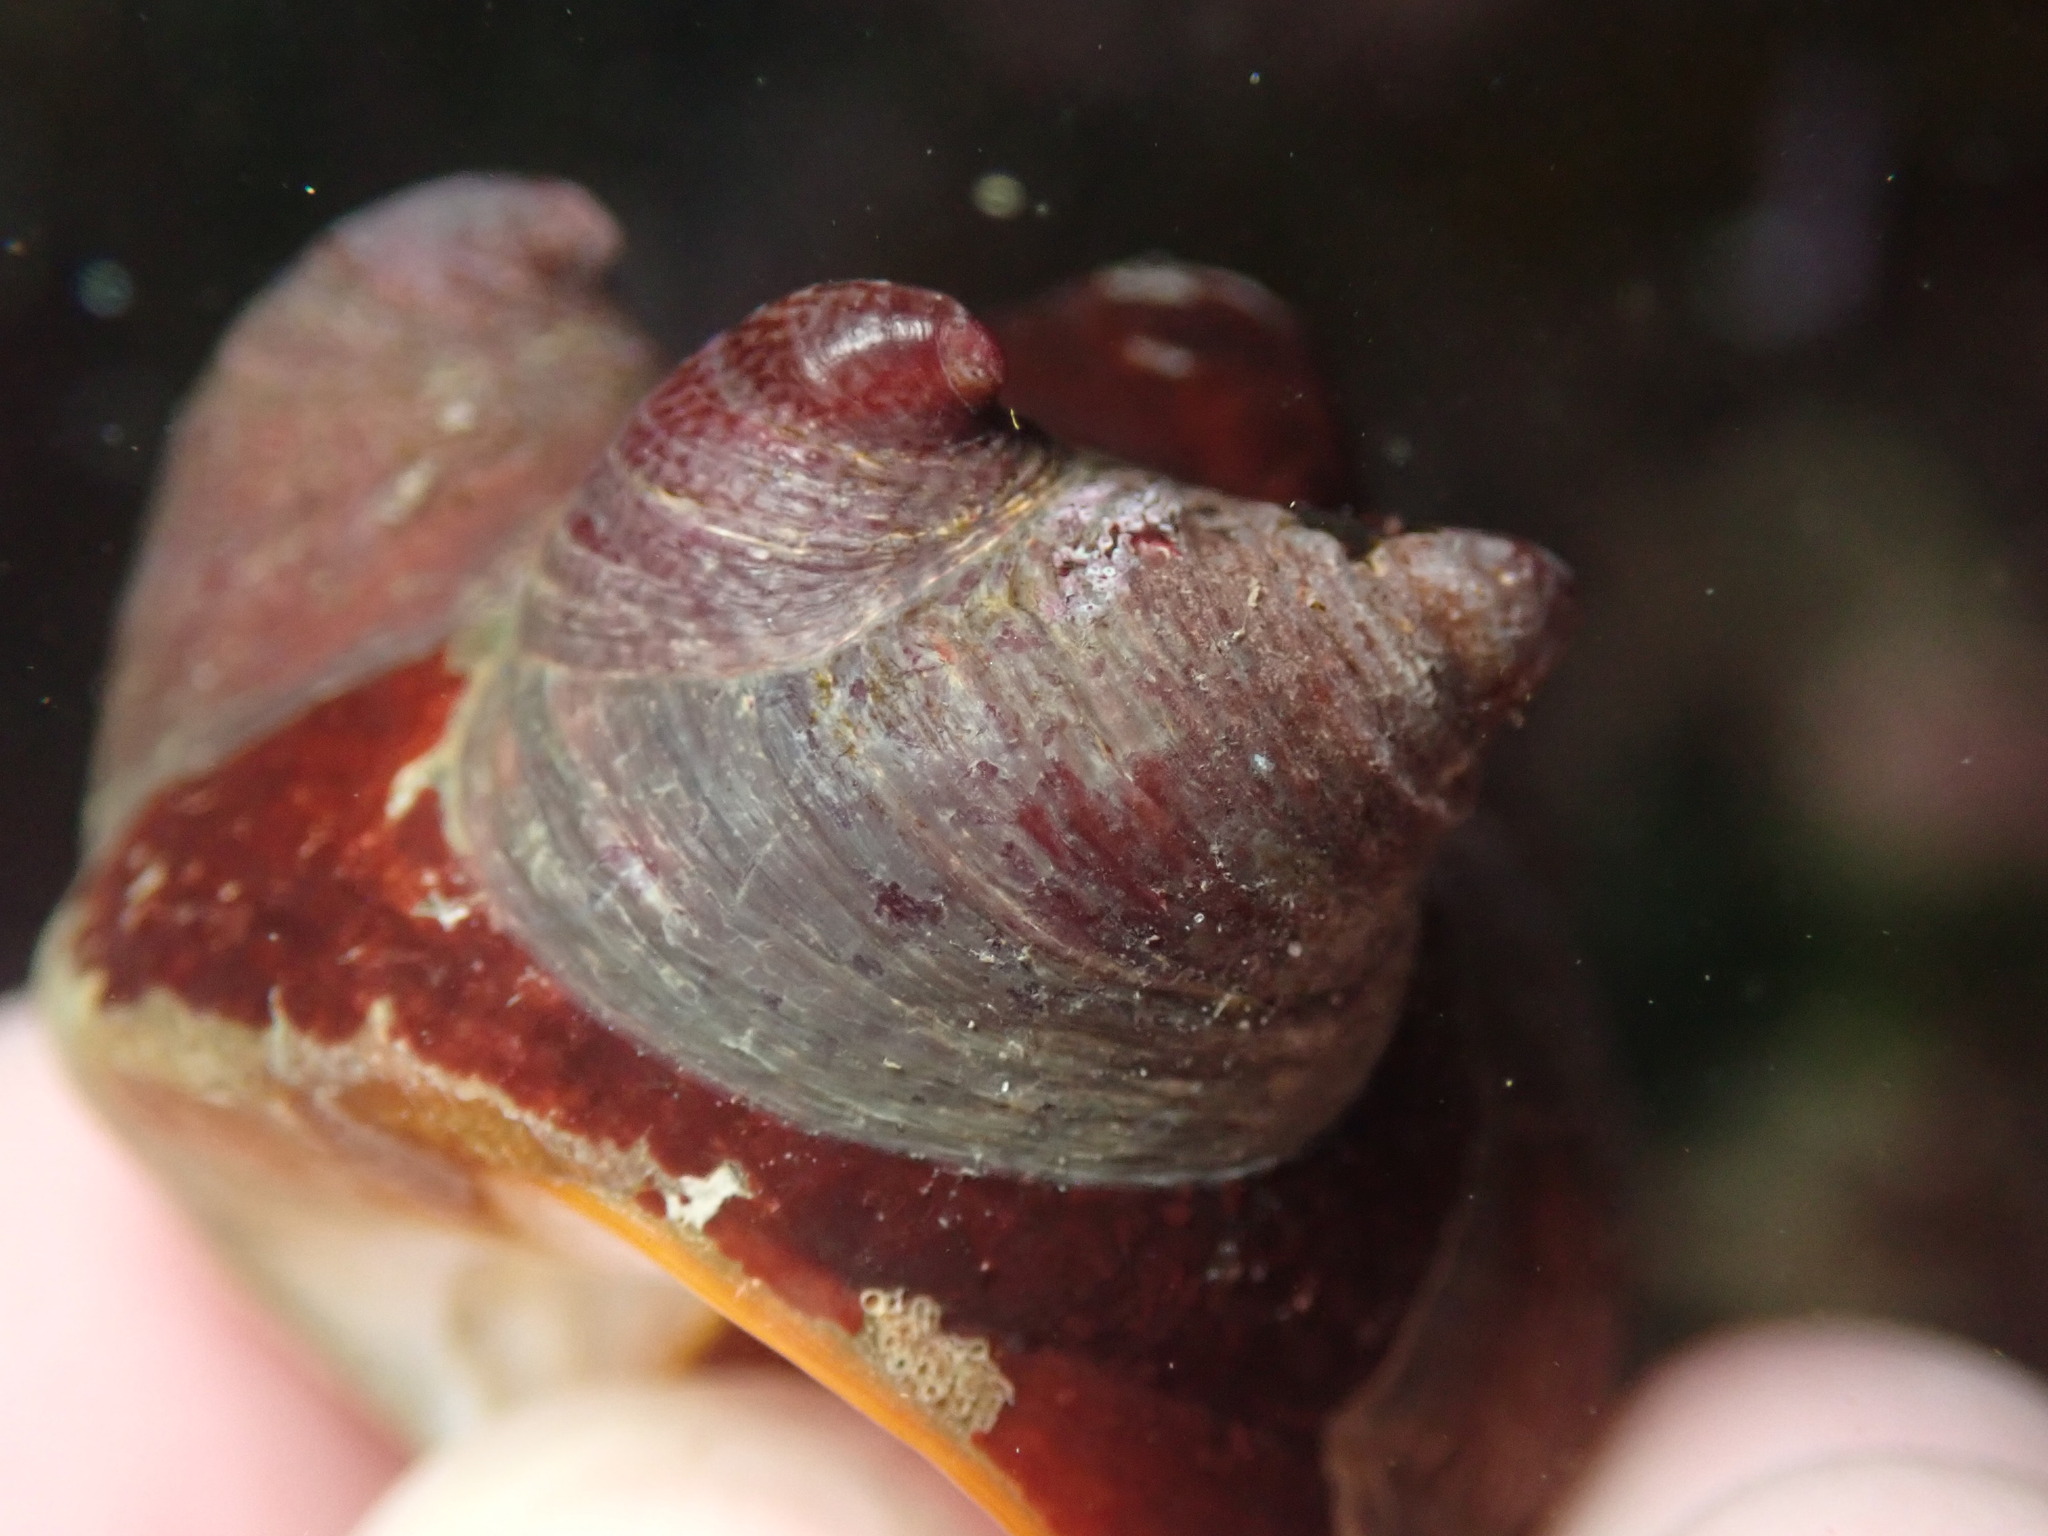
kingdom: Animalia
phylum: Mollusca
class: Gastropoda
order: Littorinimorpha
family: Calyptraeidae
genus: Crepidula
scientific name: Crepidula adunca
